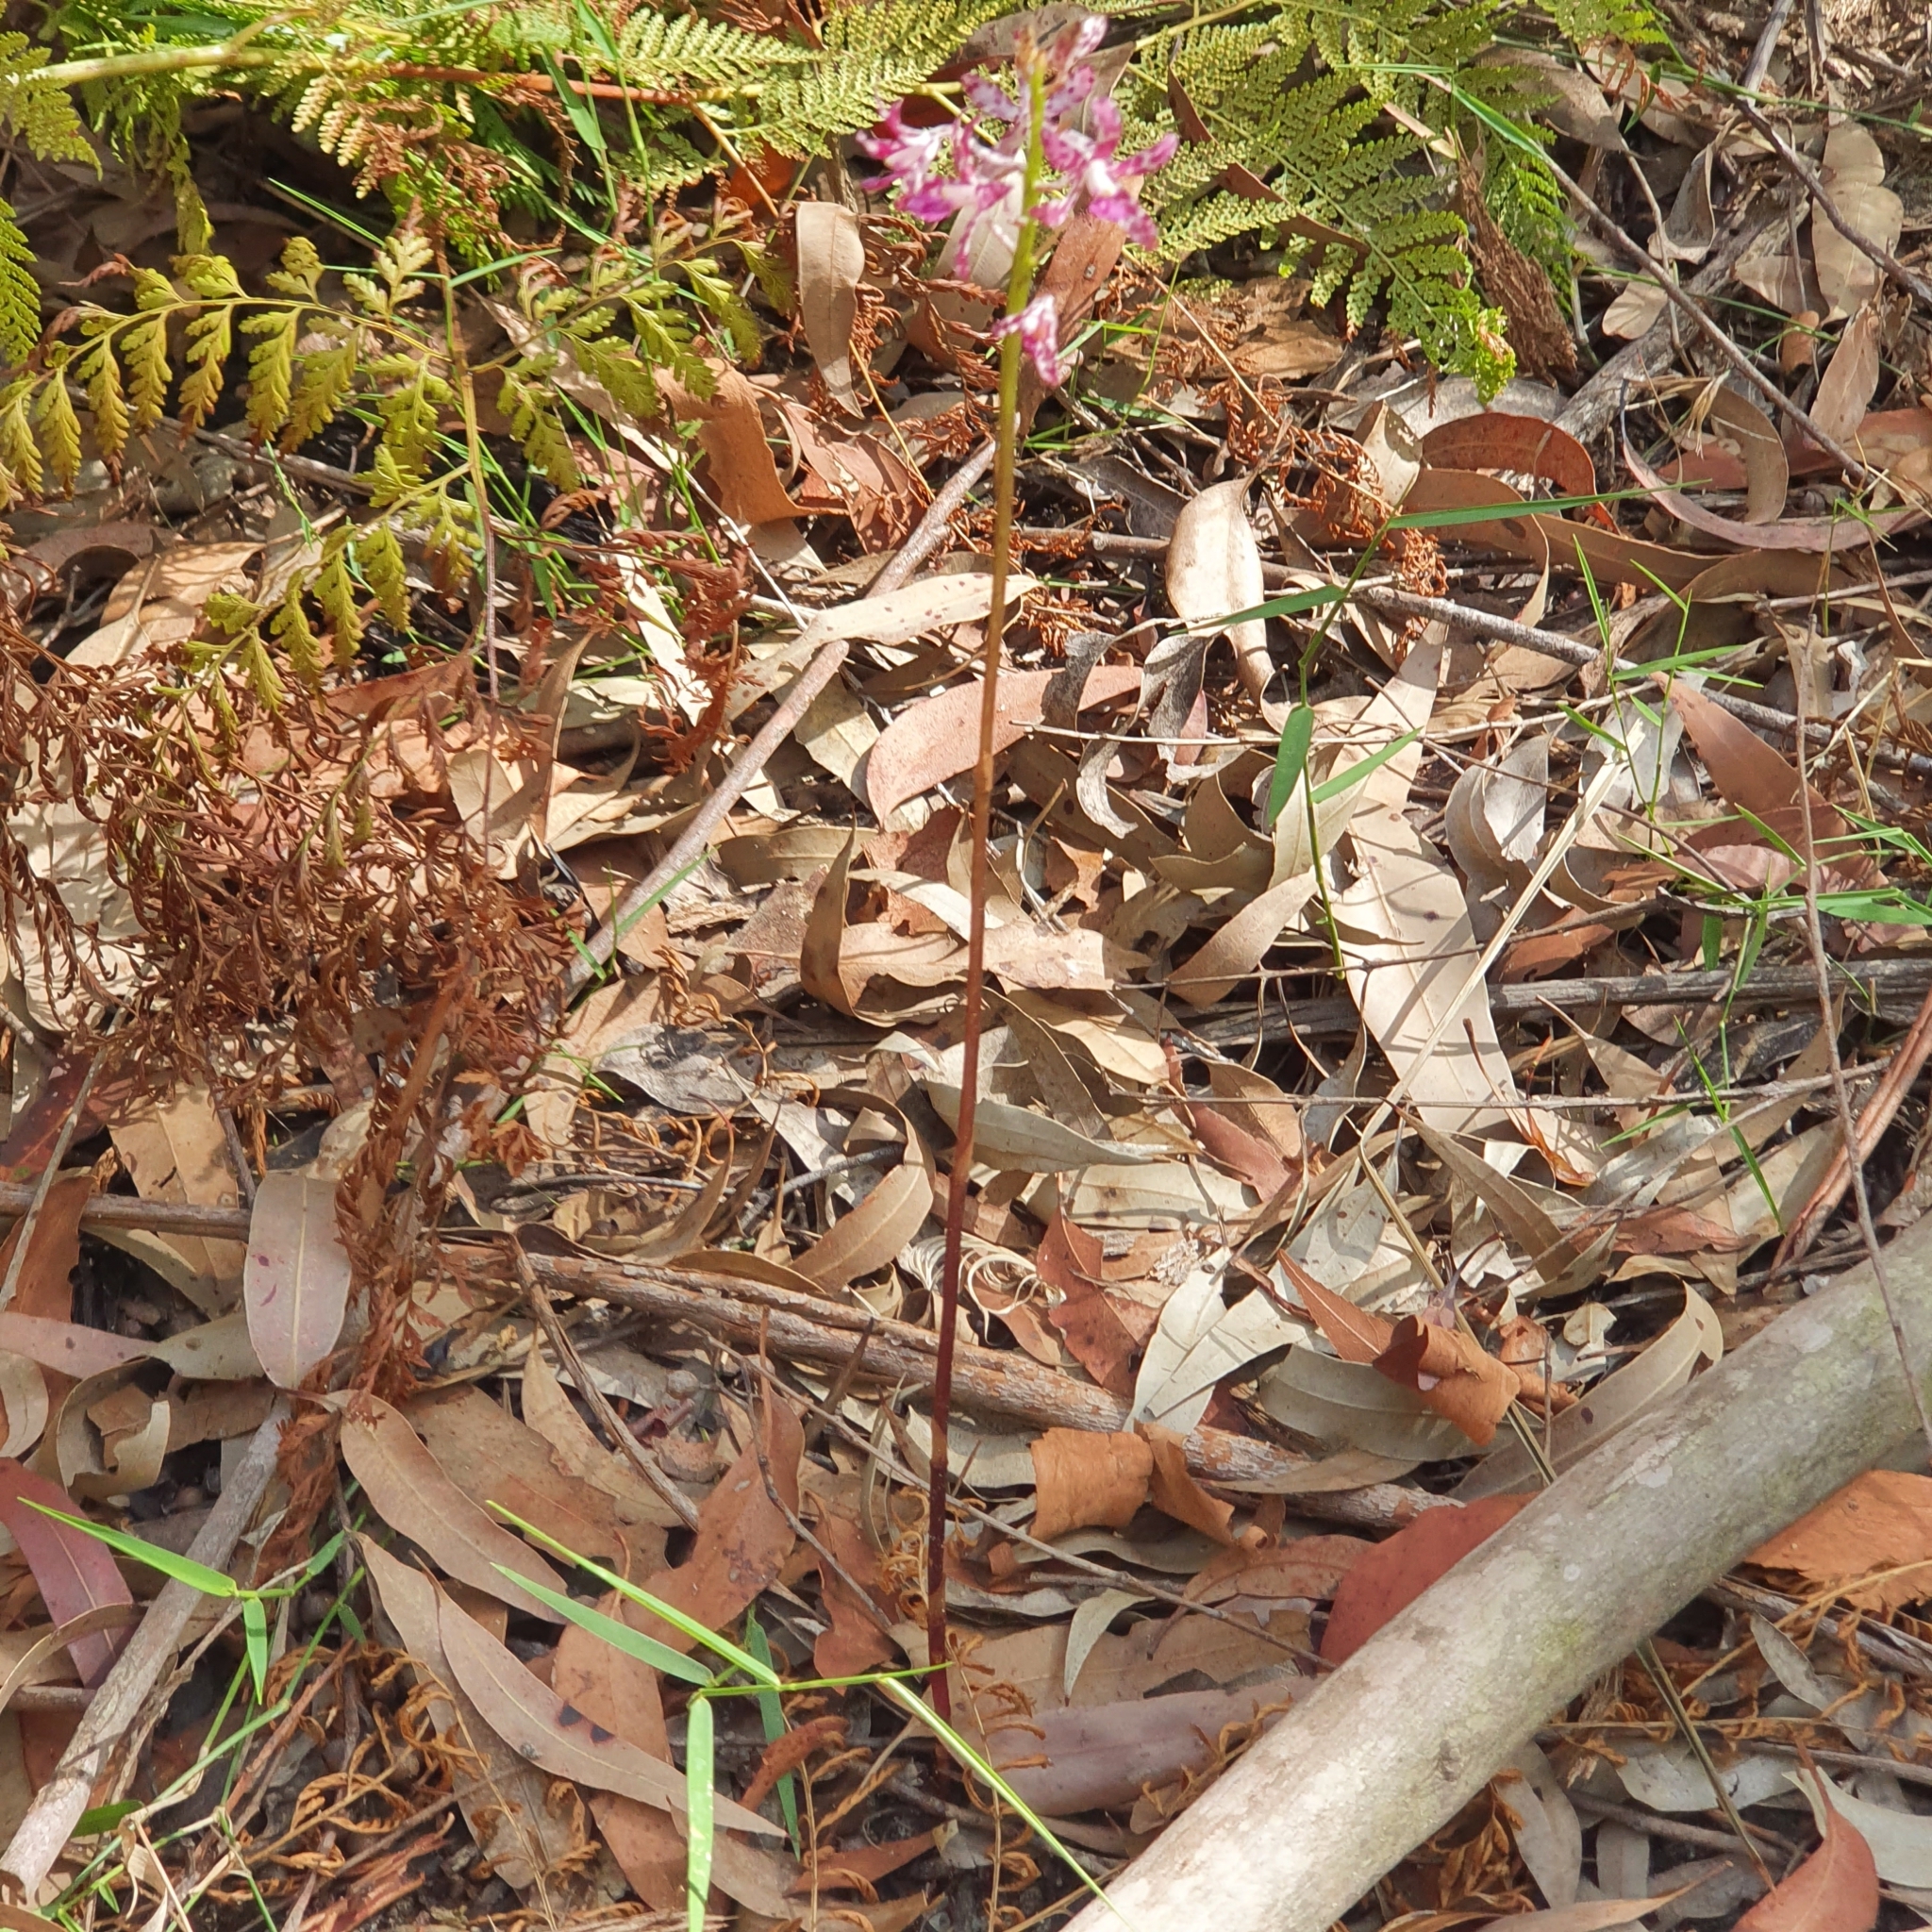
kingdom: Plantae
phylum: Tracheophyta
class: Liliopsida
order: Asparagales
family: Orchidaceae
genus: Dipodium
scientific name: Dipodium variegatum
